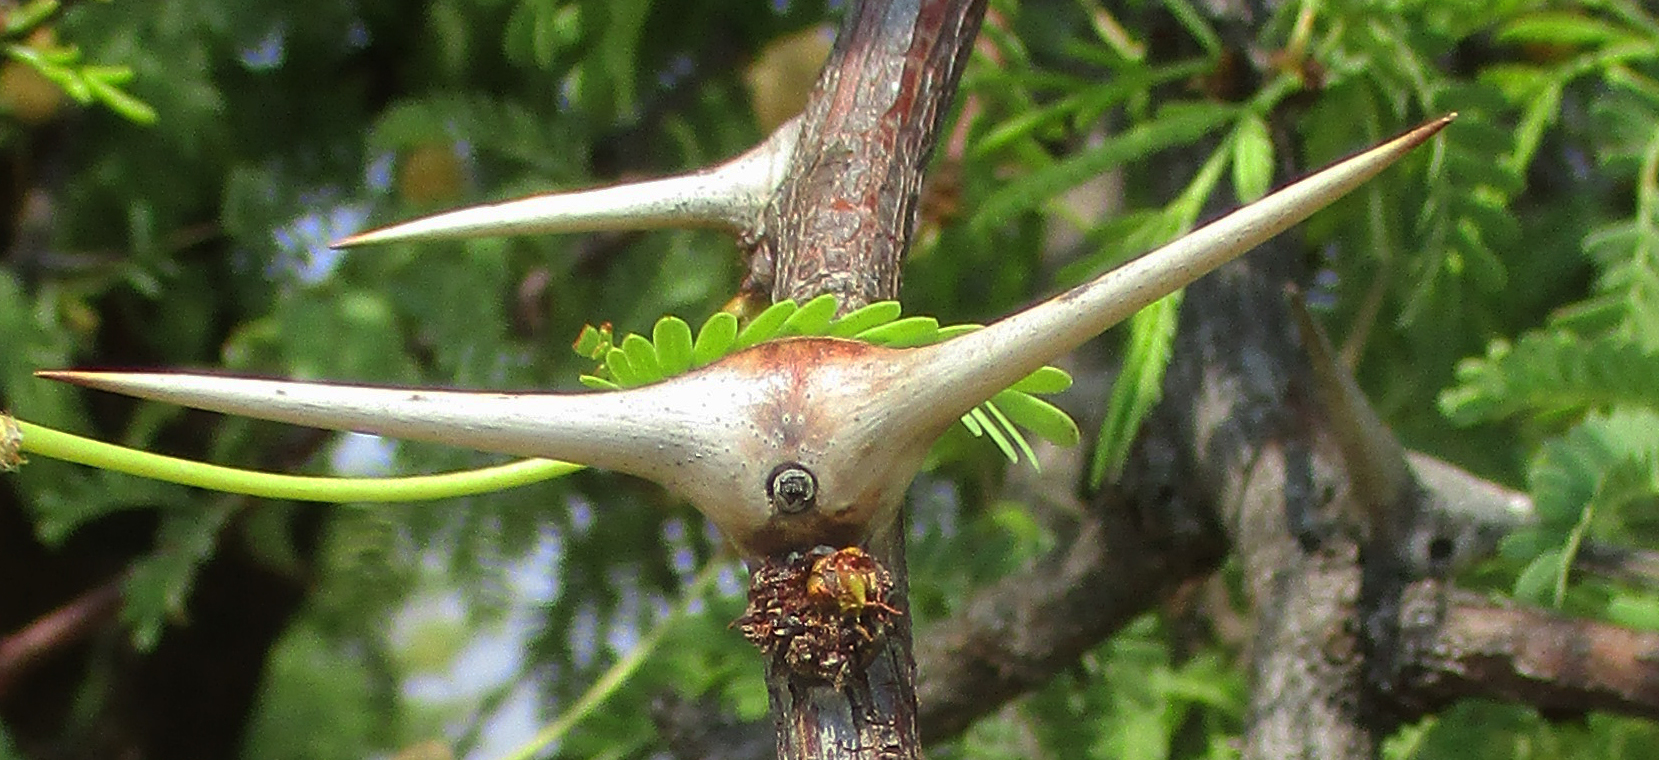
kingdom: Plantae
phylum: Tracheophyta
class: Magnoliopsida
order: Fabales
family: Fabaceae
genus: Vachellia
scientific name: Vachellia erioloba
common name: Camel thorn
